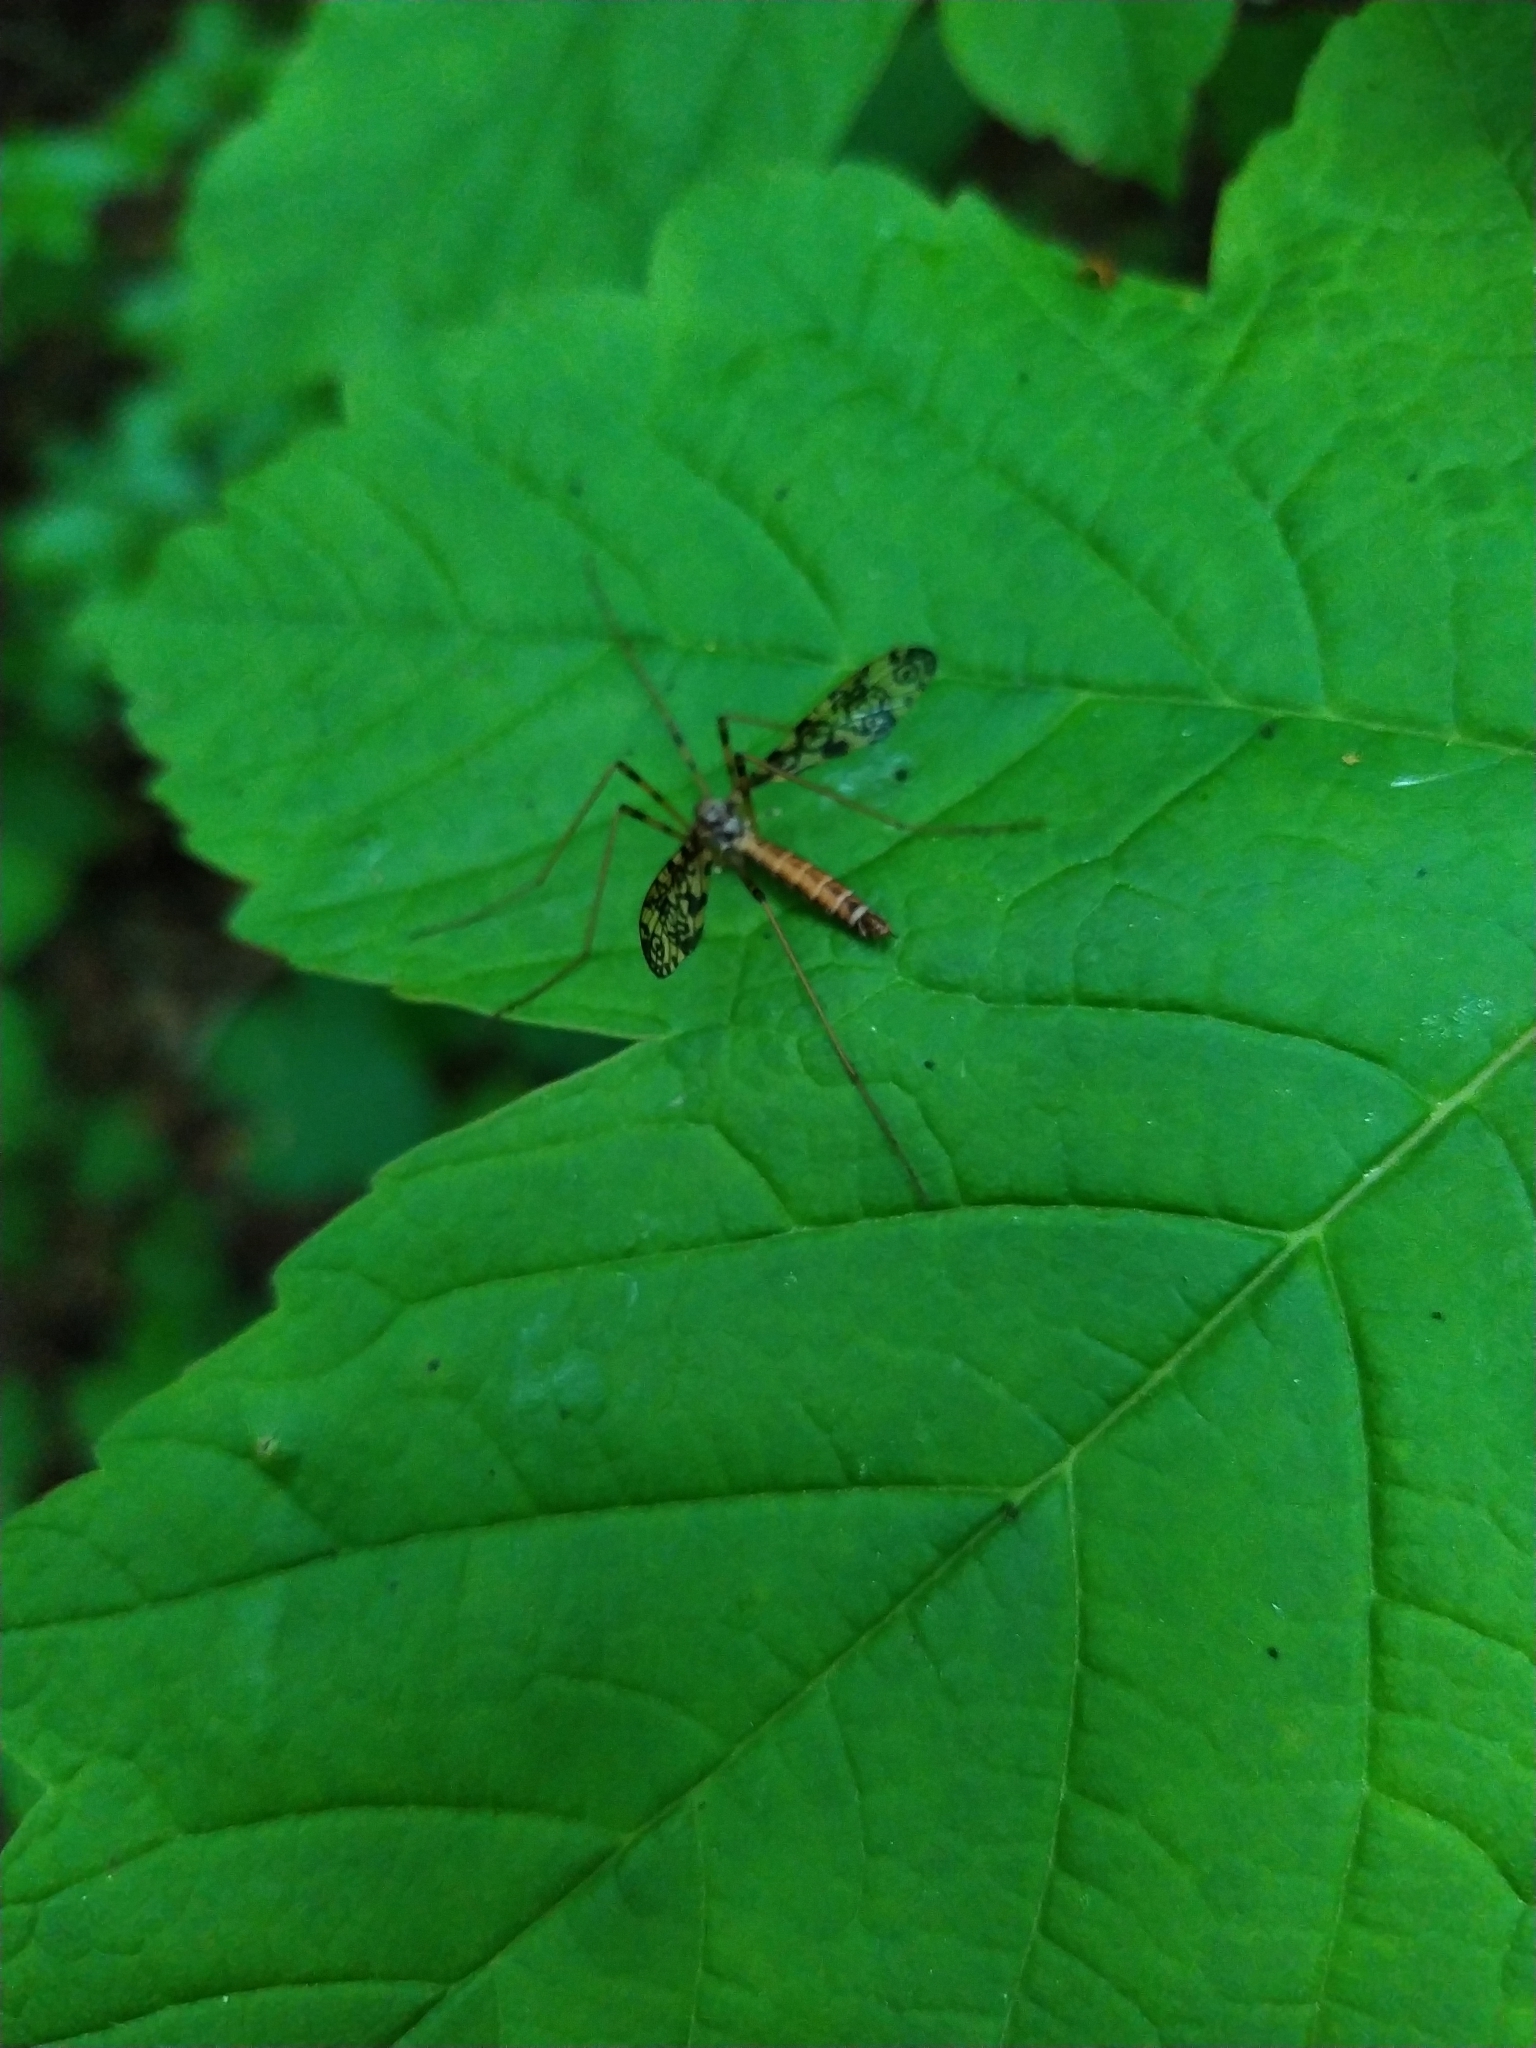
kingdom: Animalia
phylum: Arthropoda
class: Insecta
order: Diptera
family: Limoniidae
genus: Epiphragma
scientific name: Epiphragma ocellare
